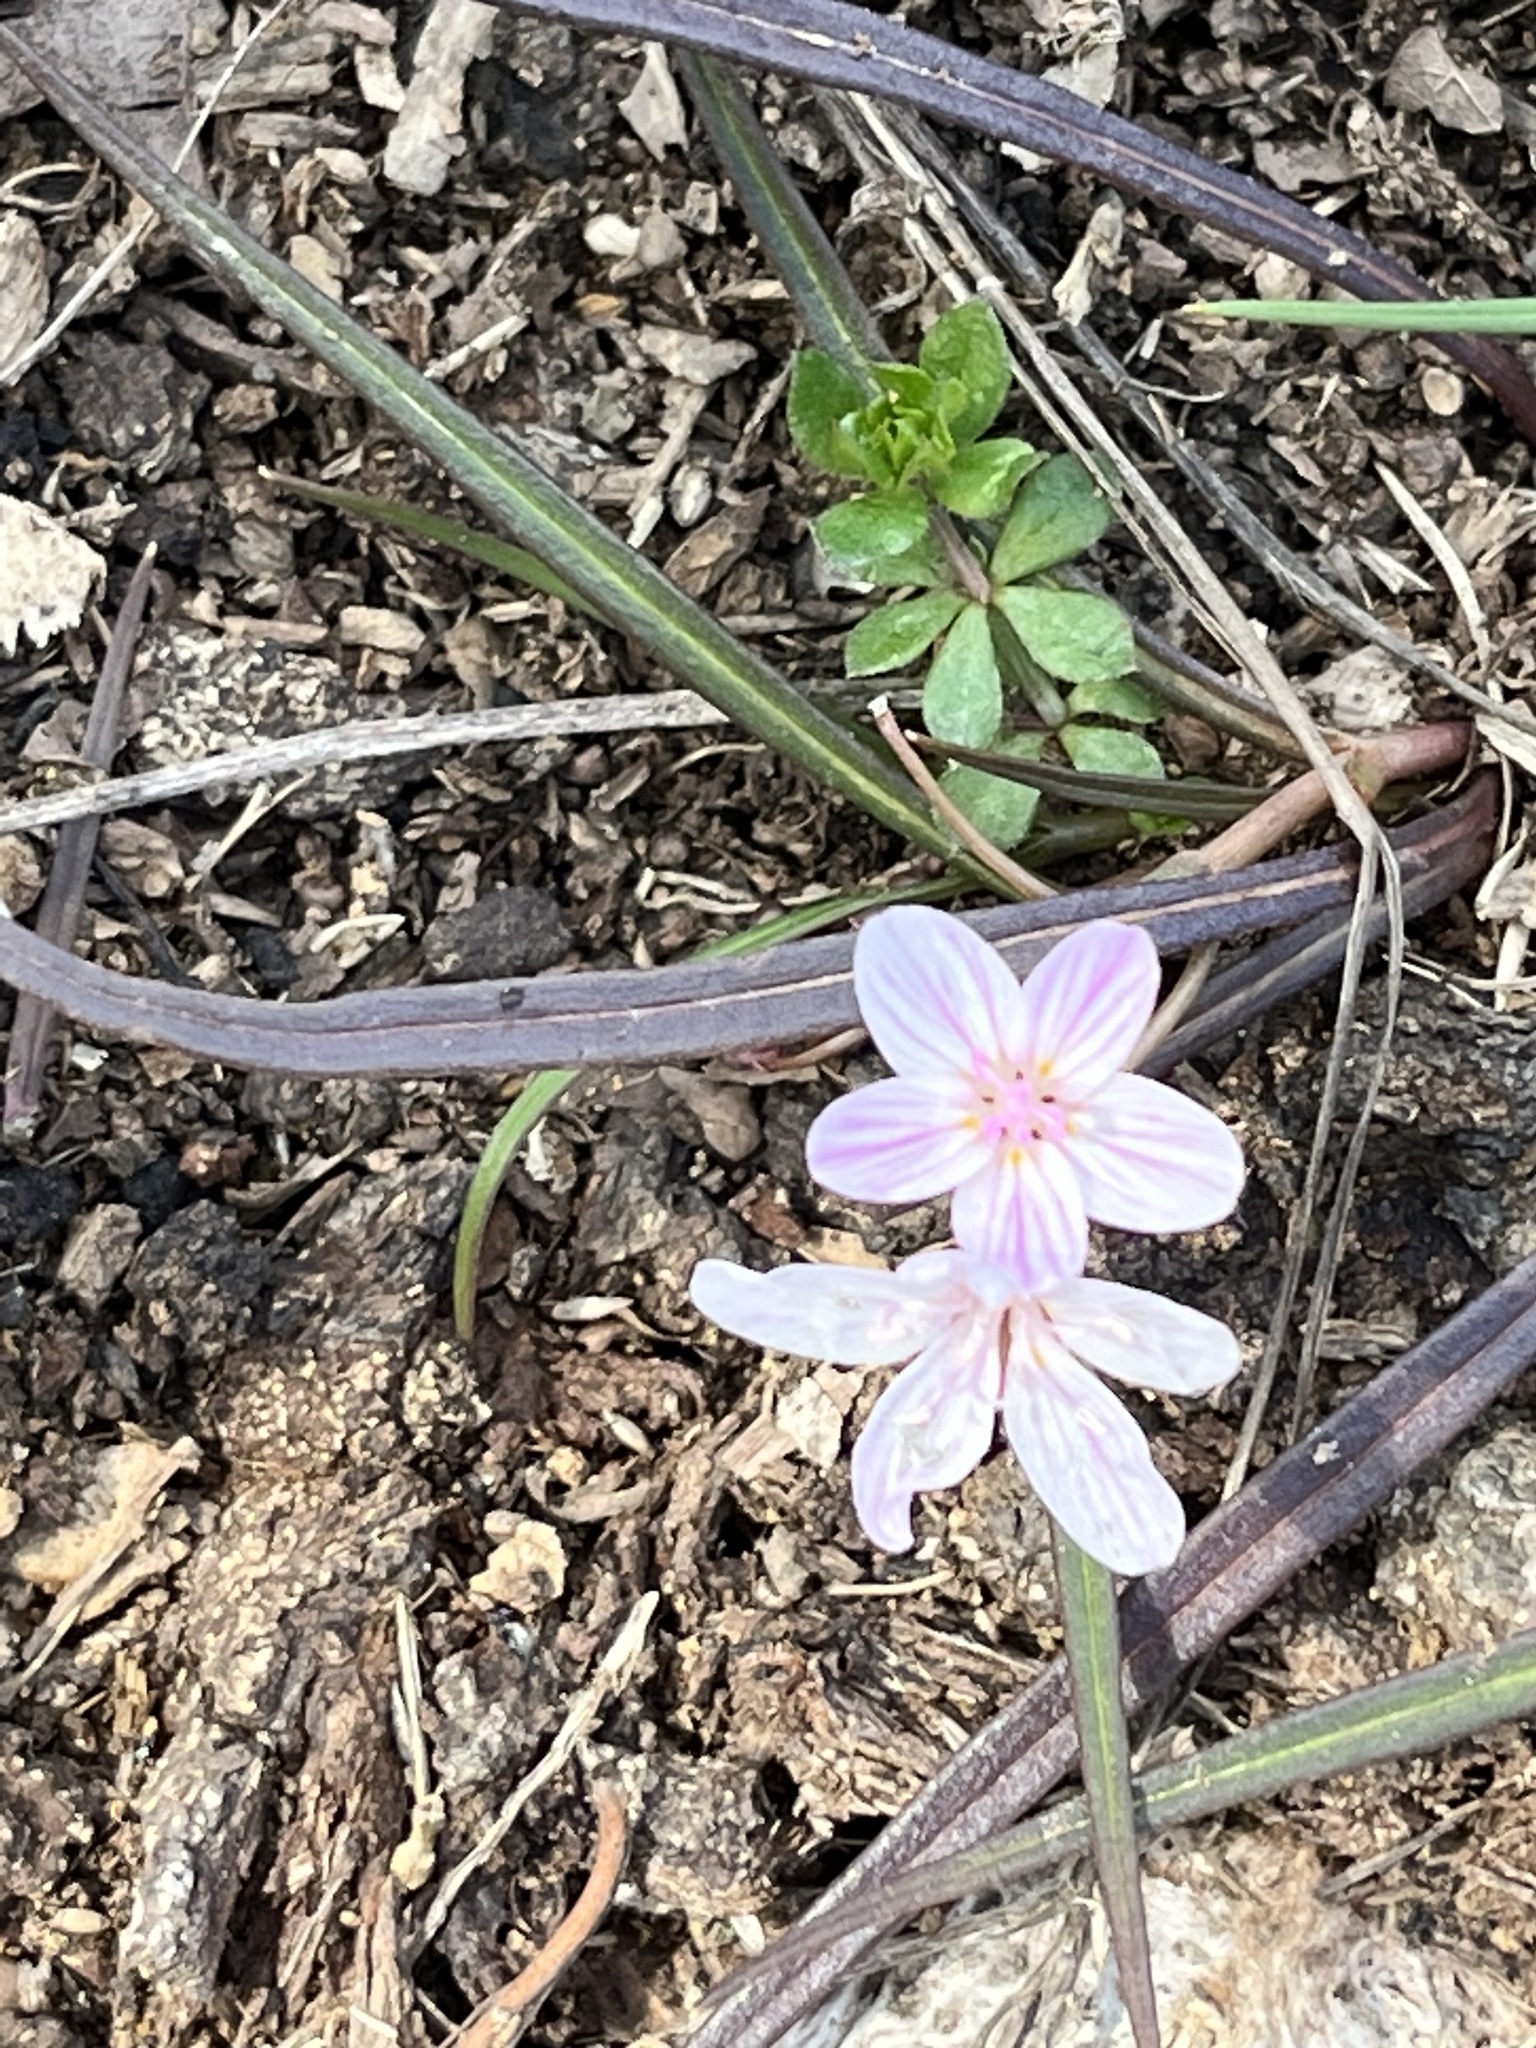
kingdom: Plantae
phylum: Tracheophyta
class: Magnoliopsida
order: Caryophyllales
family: Montiaceae
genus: Claytonia
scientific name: Claytonia virginica
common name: Virginia springbeauty
